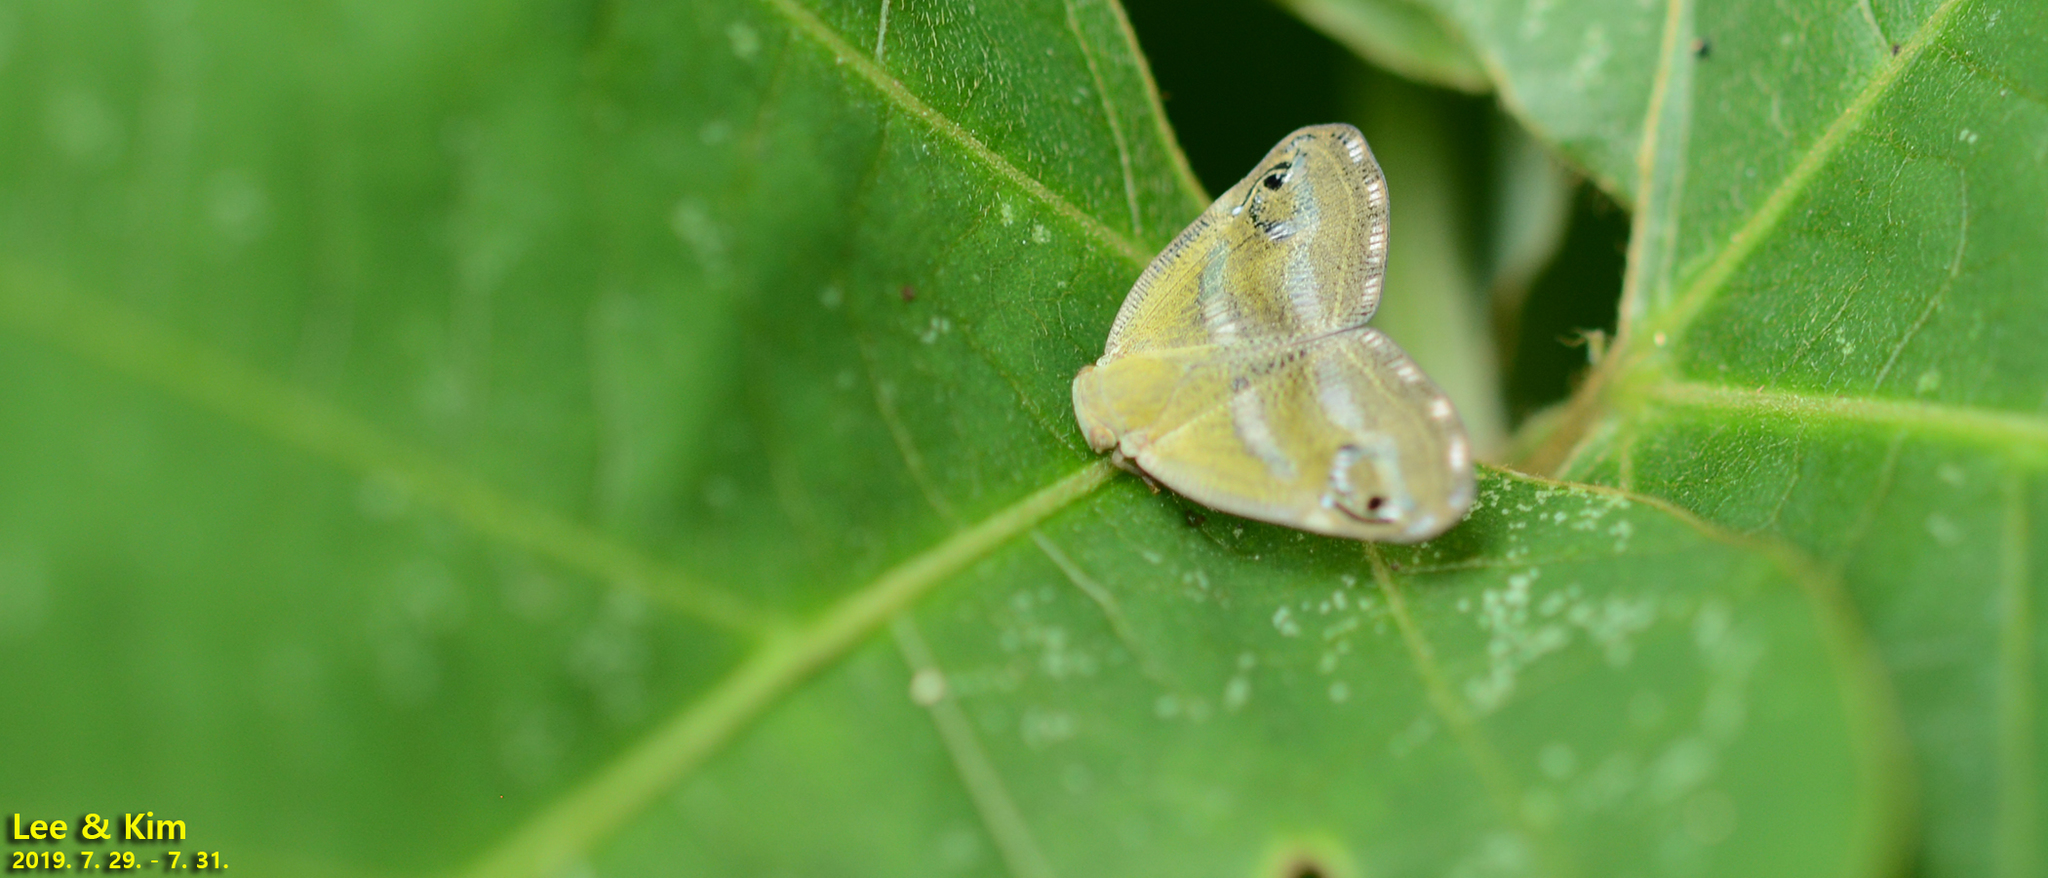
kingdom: Animalia
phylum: Arthropoda
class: Insecta
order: Hemiptera
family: Ricaniidae
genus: Orosanga
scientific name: Orosanga japonica
